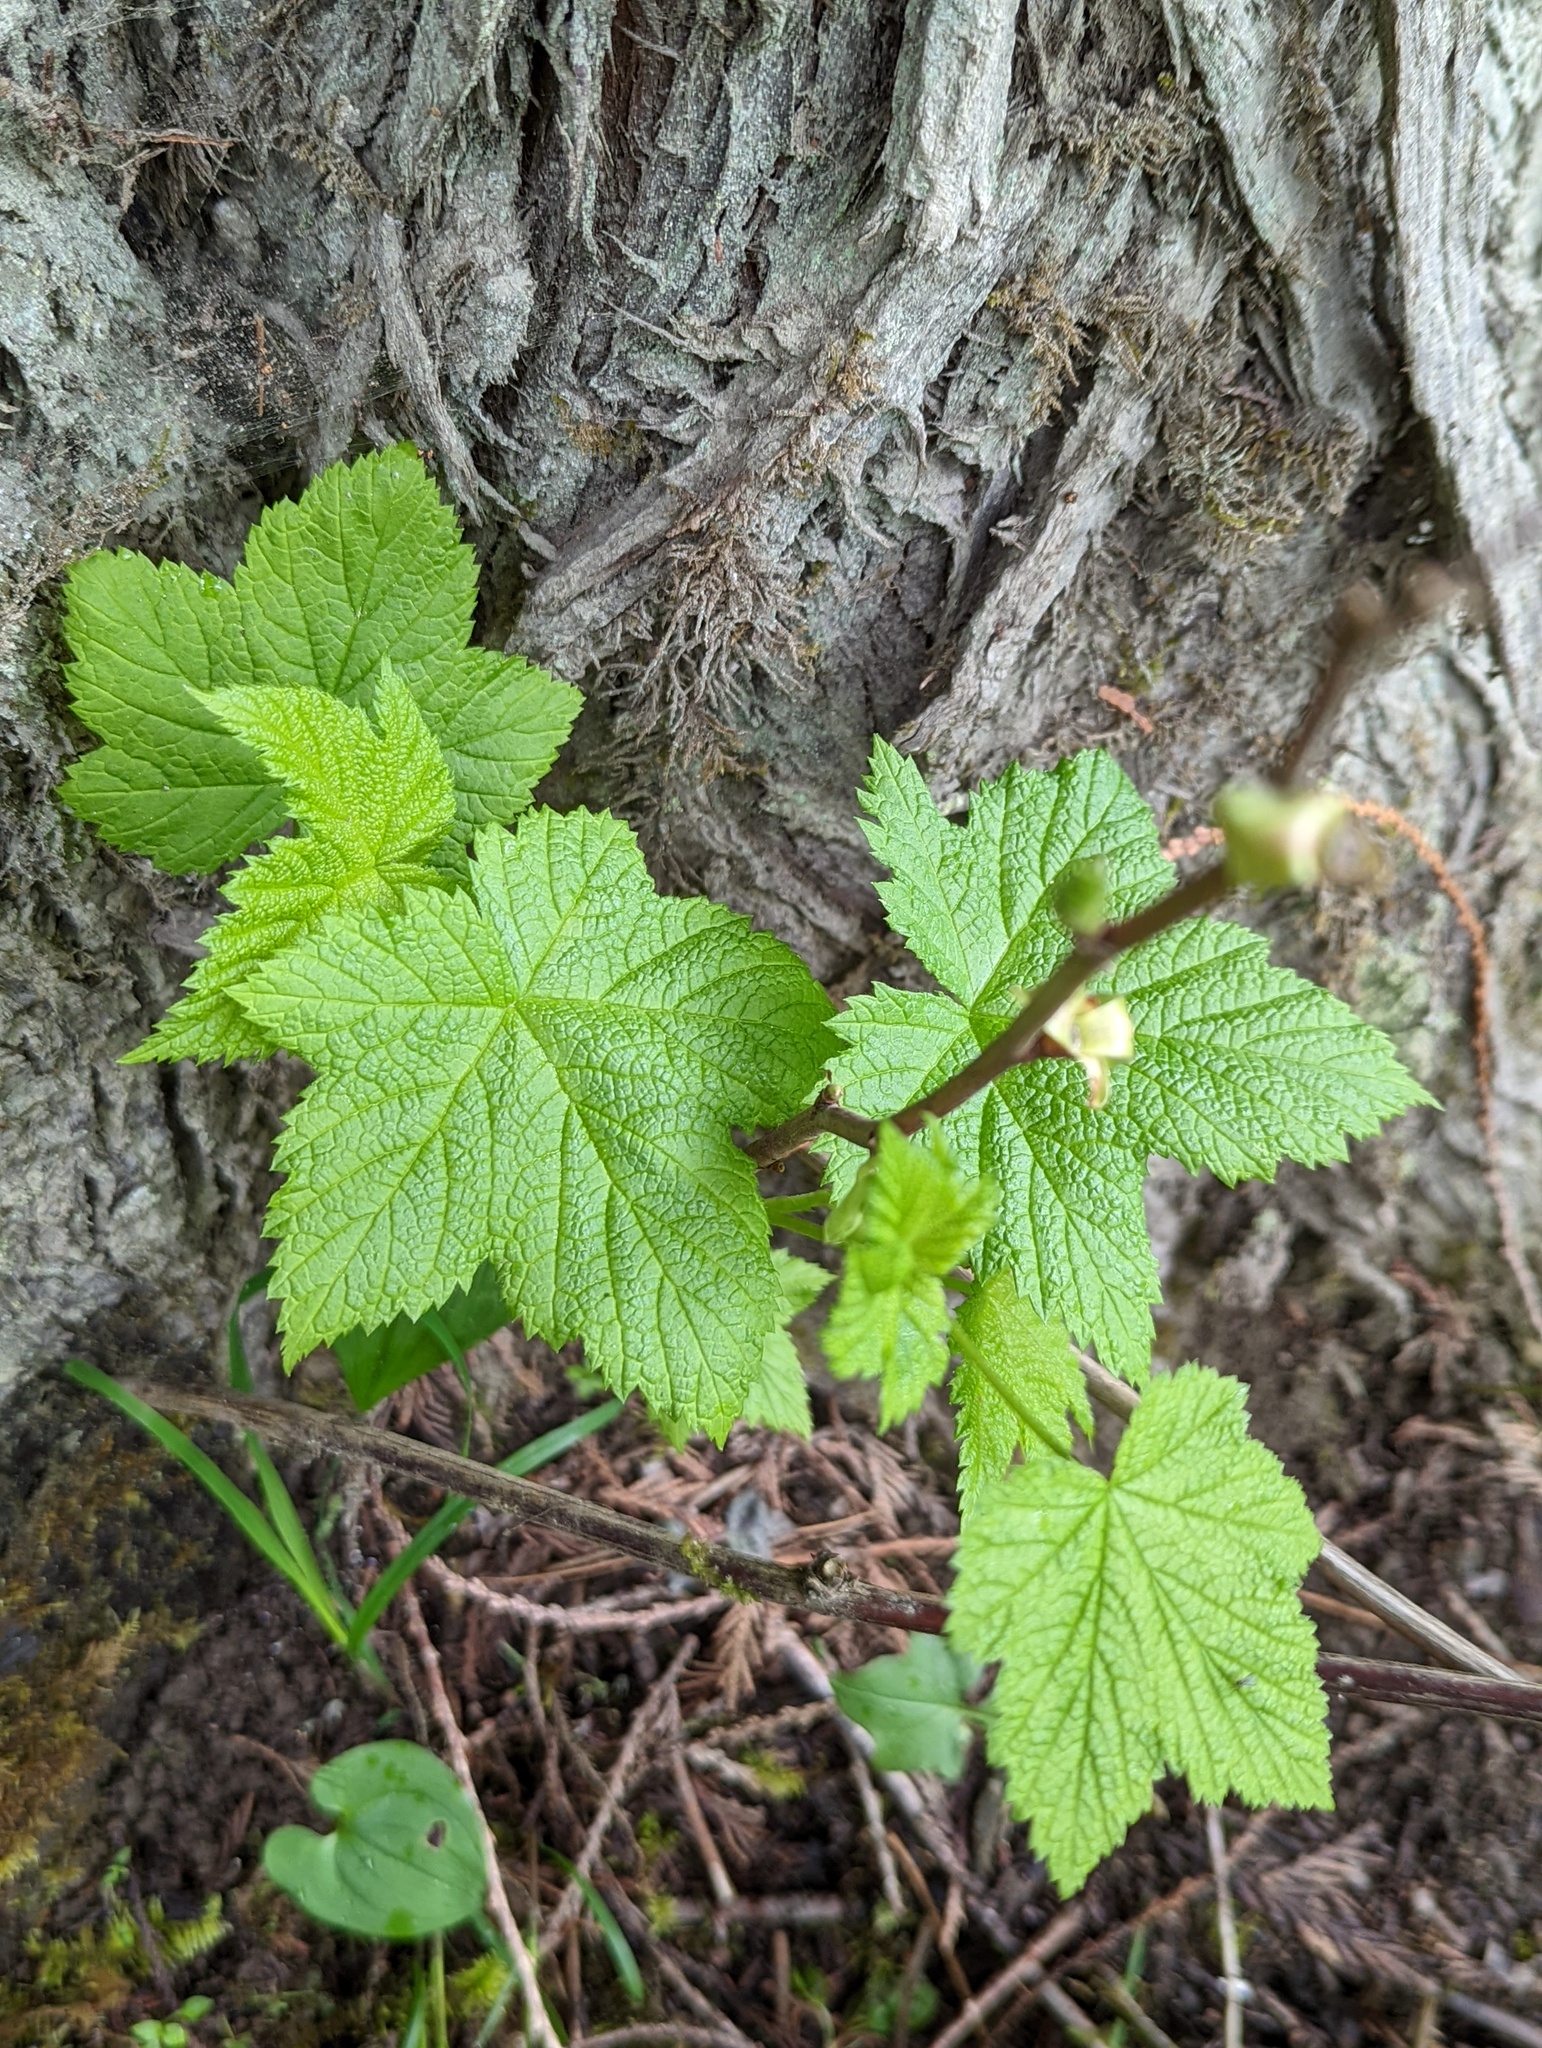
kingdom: Plantae
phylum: Tracheophyta
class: Magnoliopsida
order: Rosales
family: Rosaceae
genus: Rubus
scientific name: Rubus parviflorus
